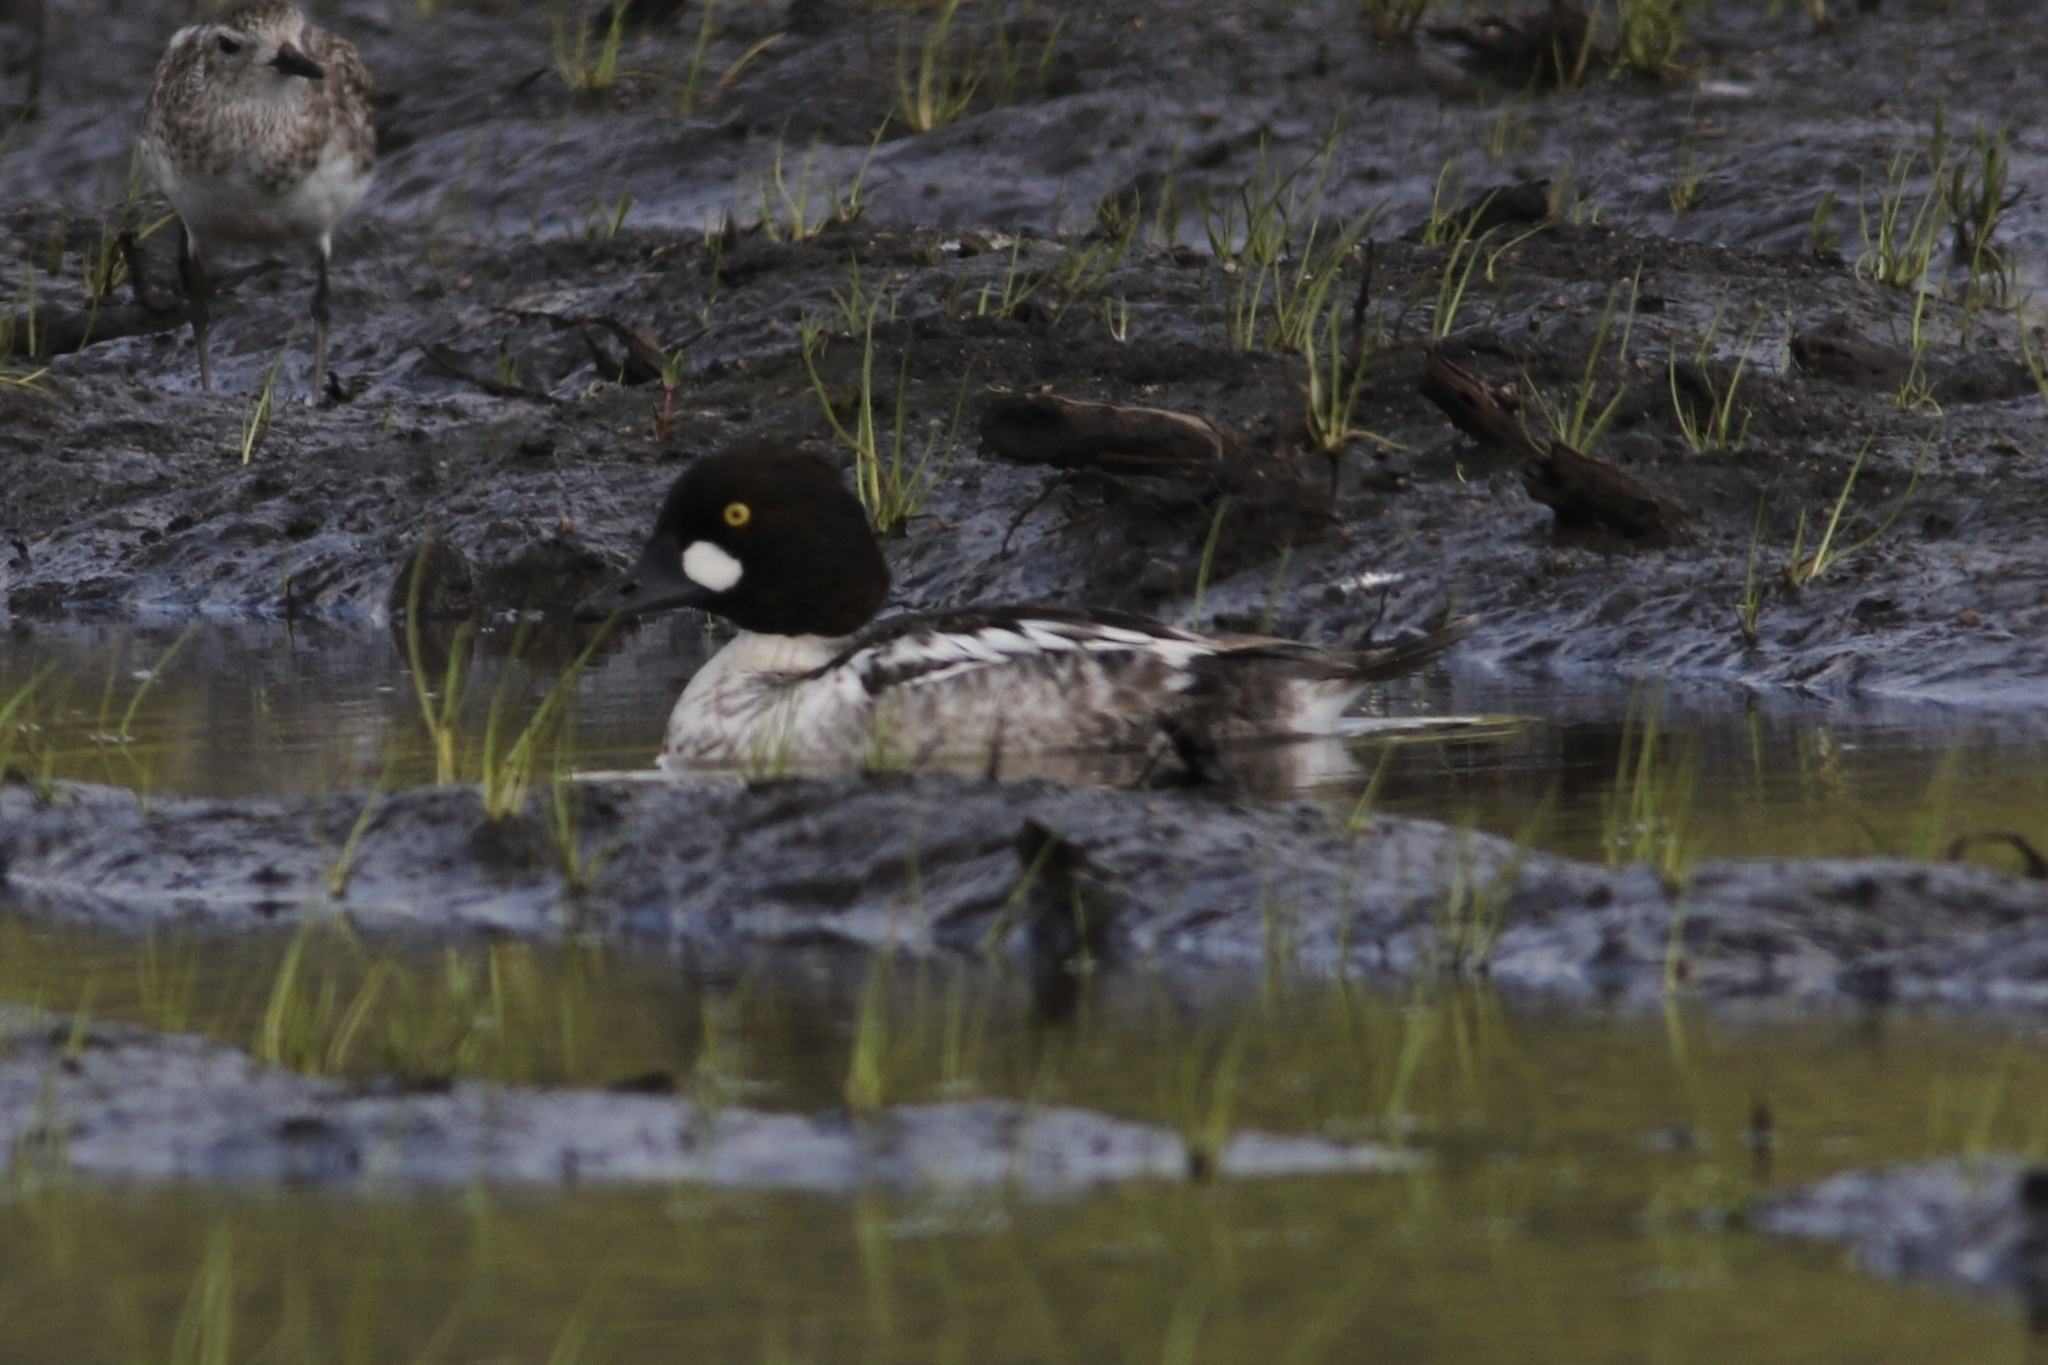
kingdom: Animalia
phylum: Chordata
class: Aves
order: Anseriformes
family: Anatidae
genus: Bucephala
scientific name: Bucephala clangula
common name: Common goldeneye
